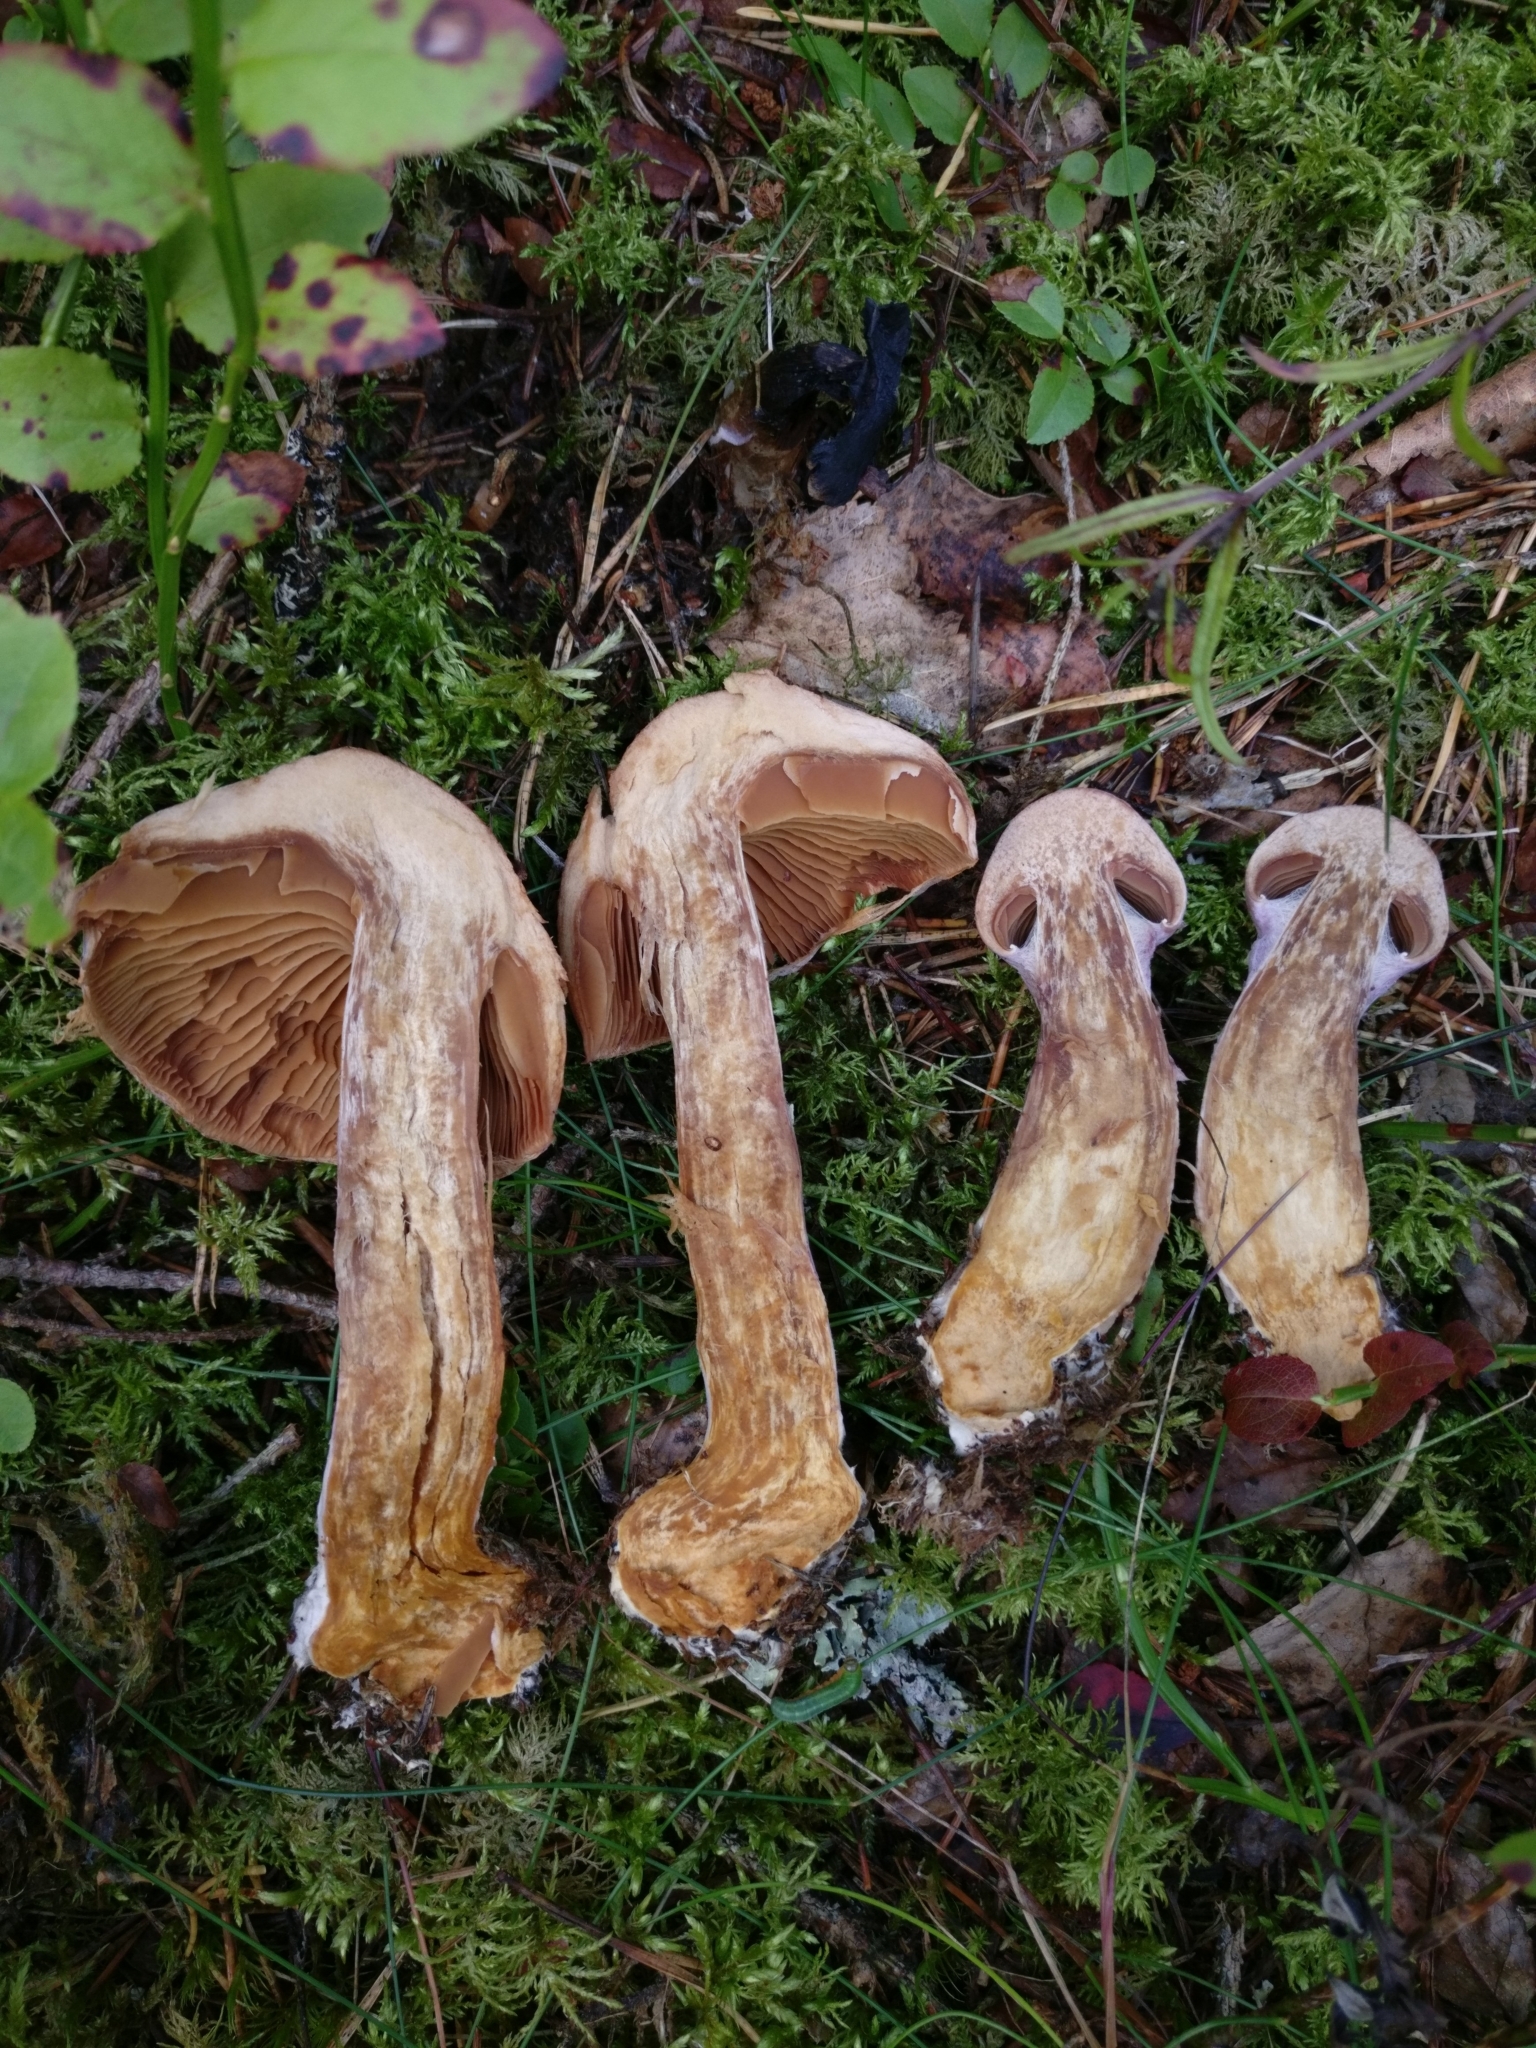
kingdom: Fungi
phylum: Basidiomycota
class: Agaricomycetes
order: Agaricales
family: Cortinariaceae
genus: Cortinarius
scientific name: Cortinarius traganus
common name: Gassy webcap
